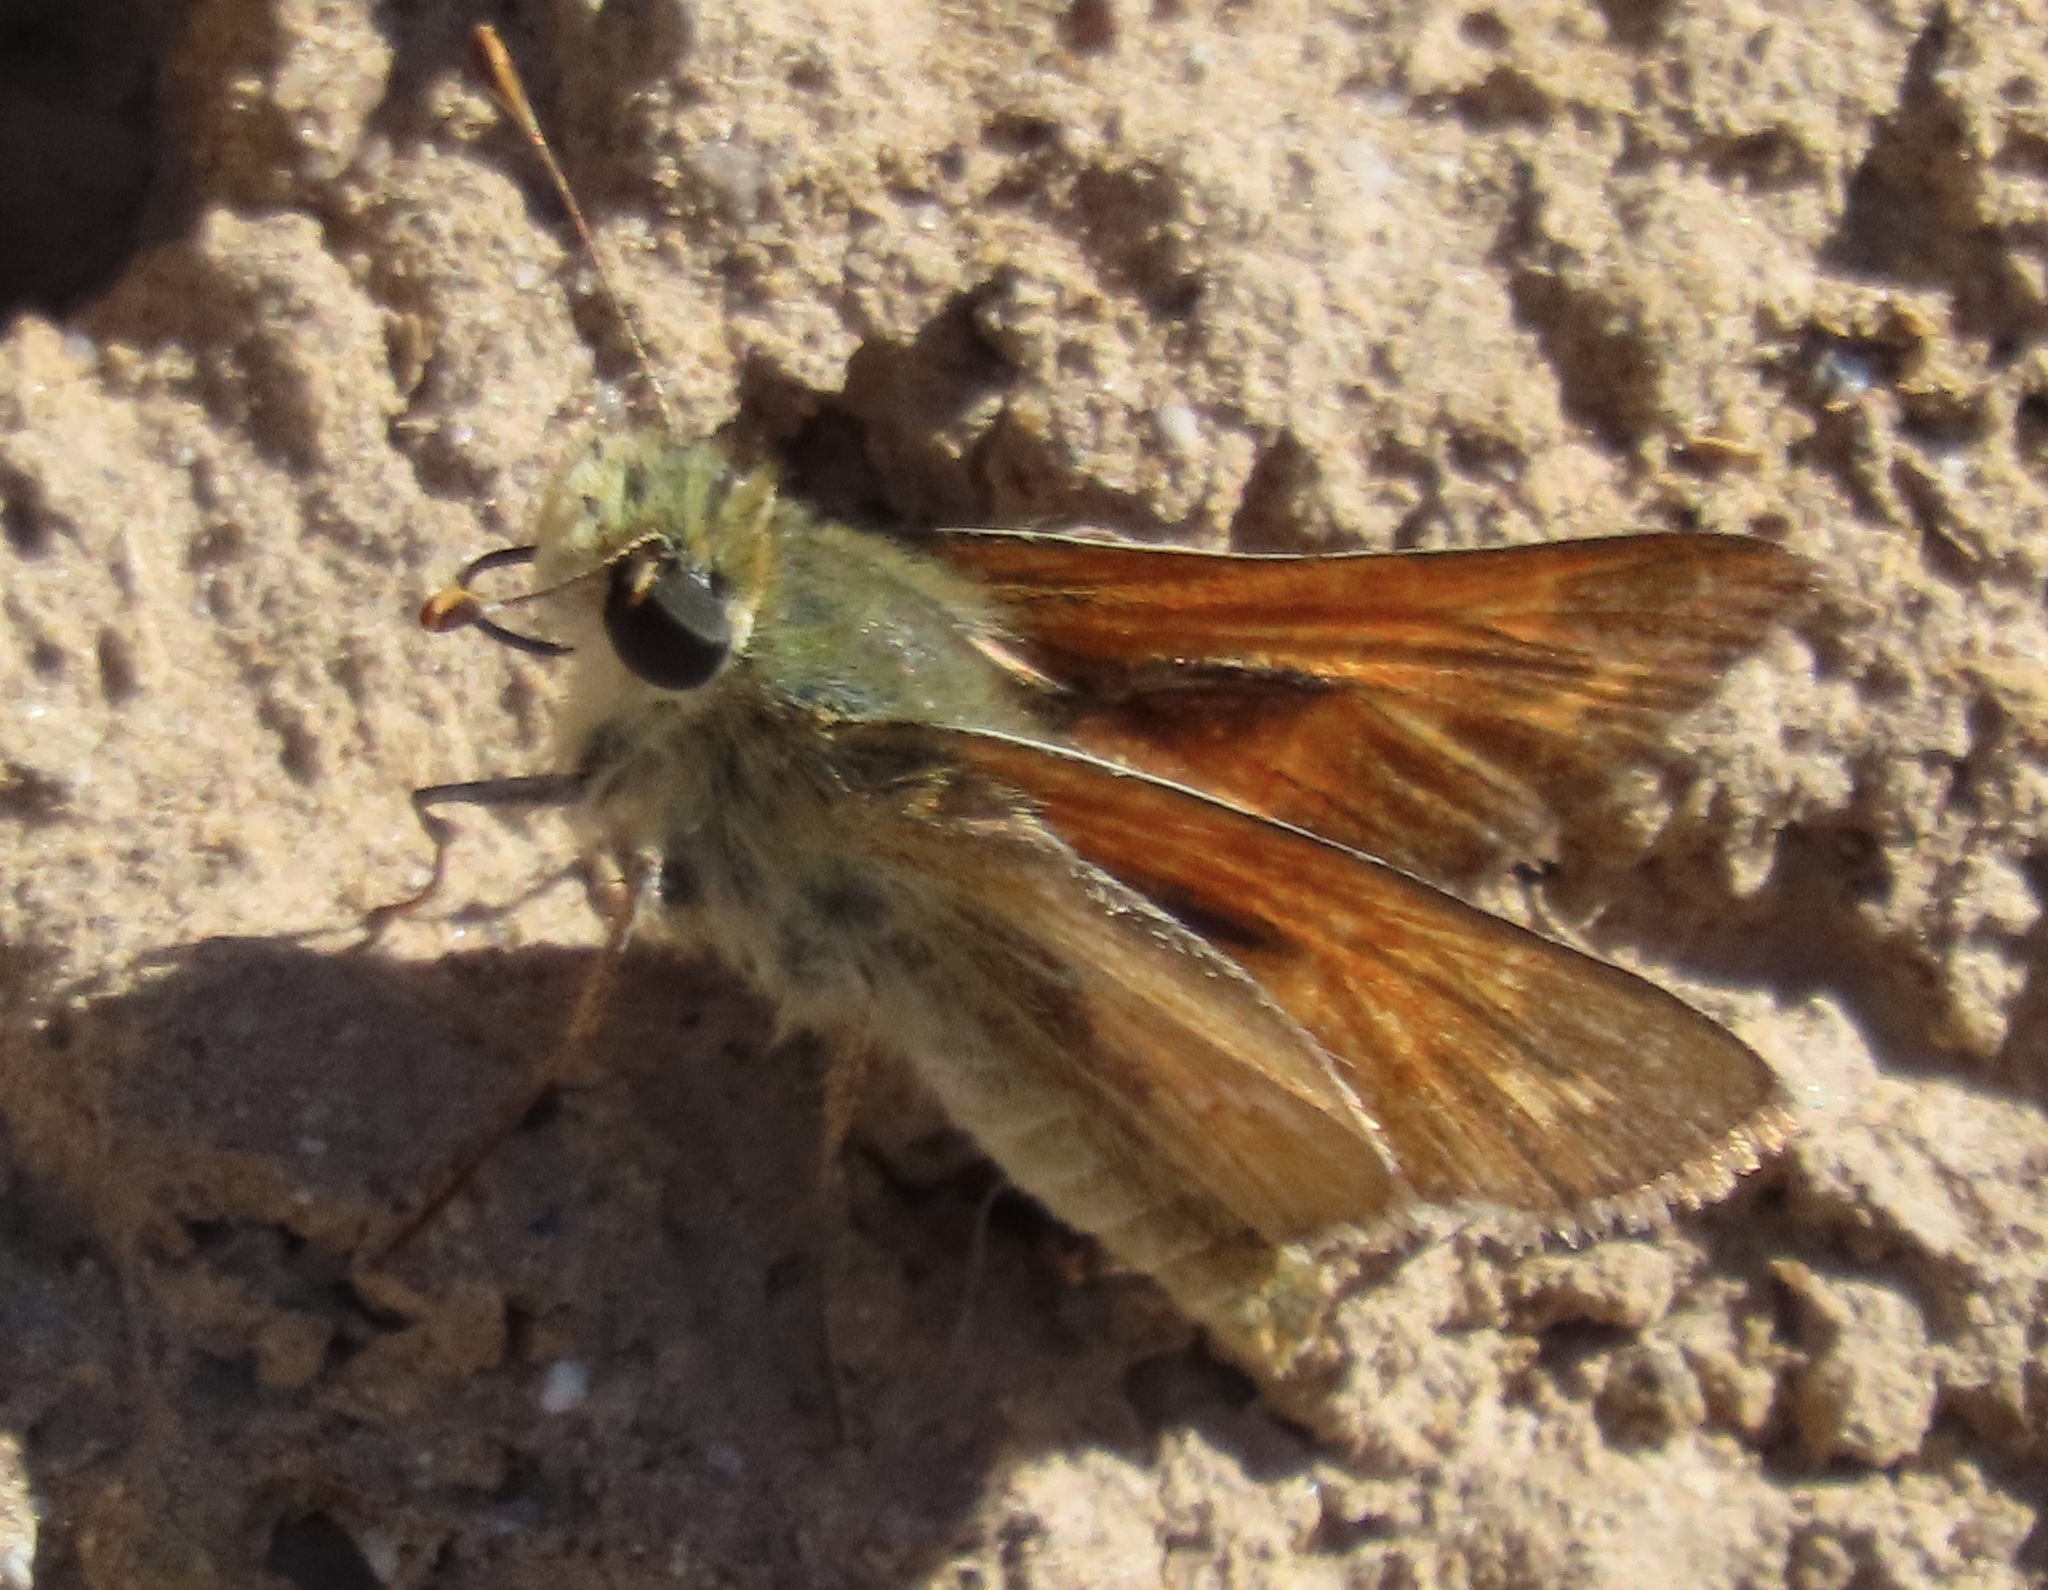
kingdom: Animalia
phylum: Arthropoda
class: Insecta
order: Lepidoptera
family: Hesperiidae
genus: Hesperia
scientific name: Hesperia columbia
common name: Columbian skipper
